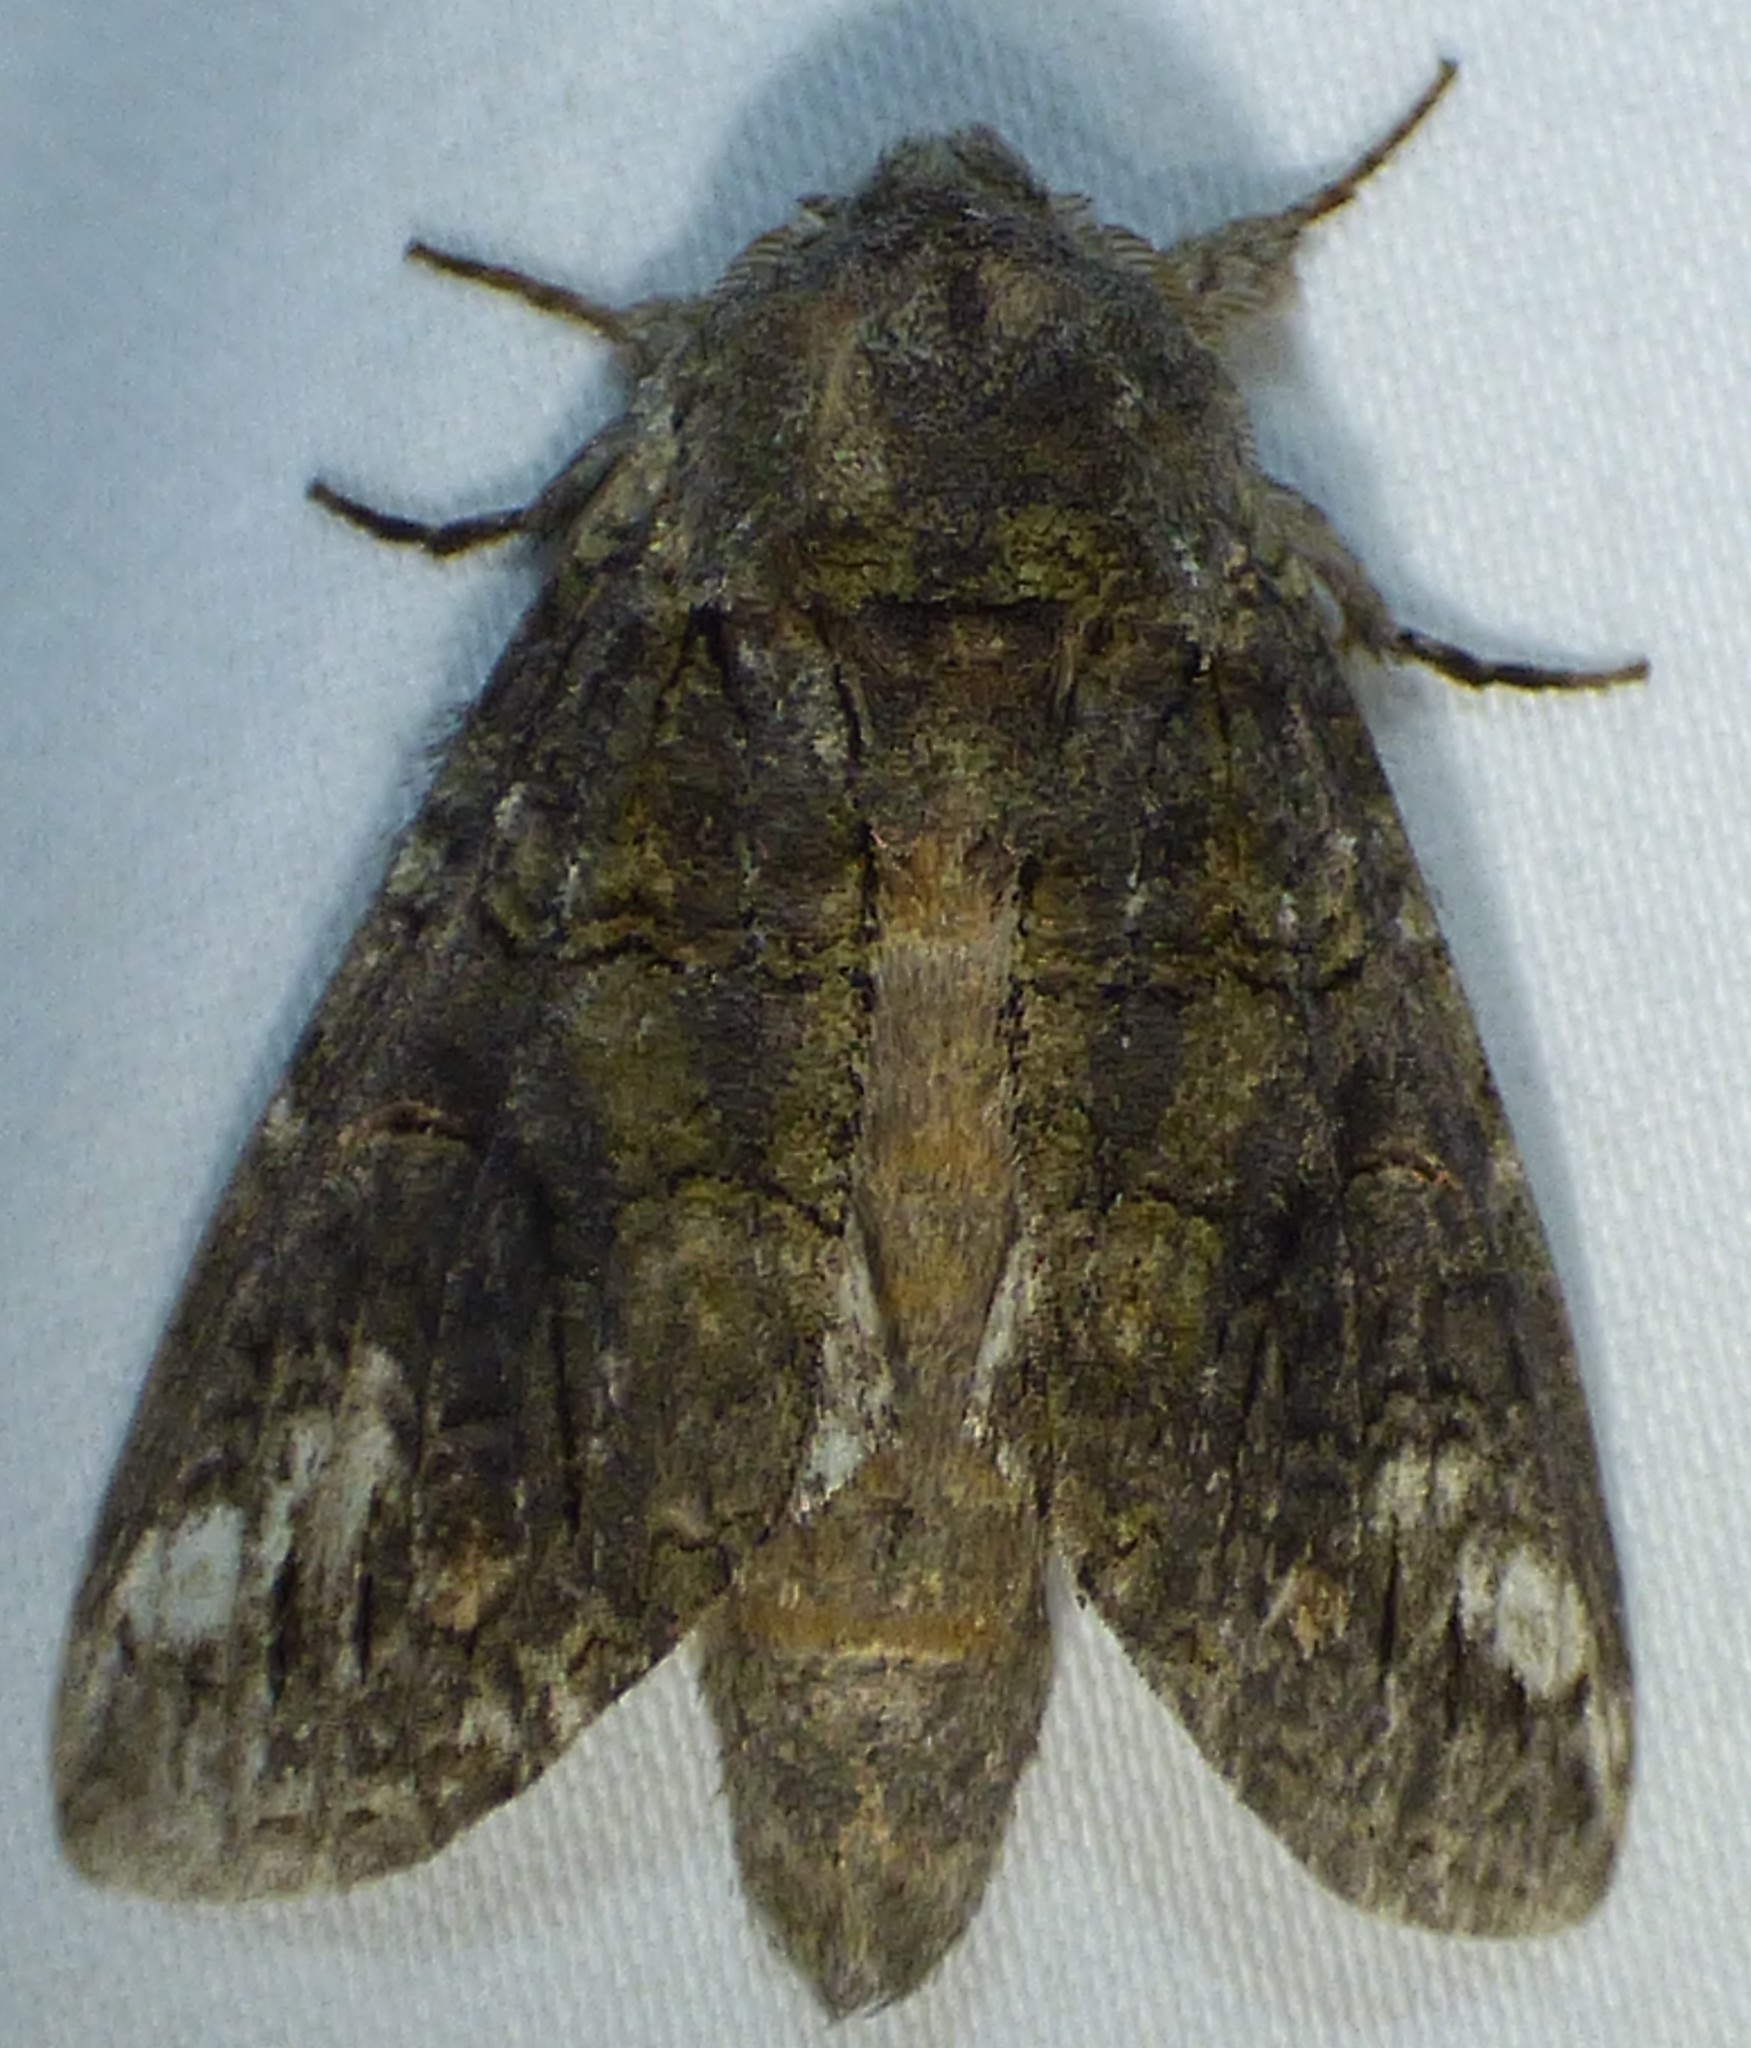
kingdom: Animalia
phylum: Arthropoda
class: Insecta
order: Lepidoptera
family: Notodontidae
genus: Heterocampa
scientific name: Heterocampa obliqua
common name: Oblique heterocampa
